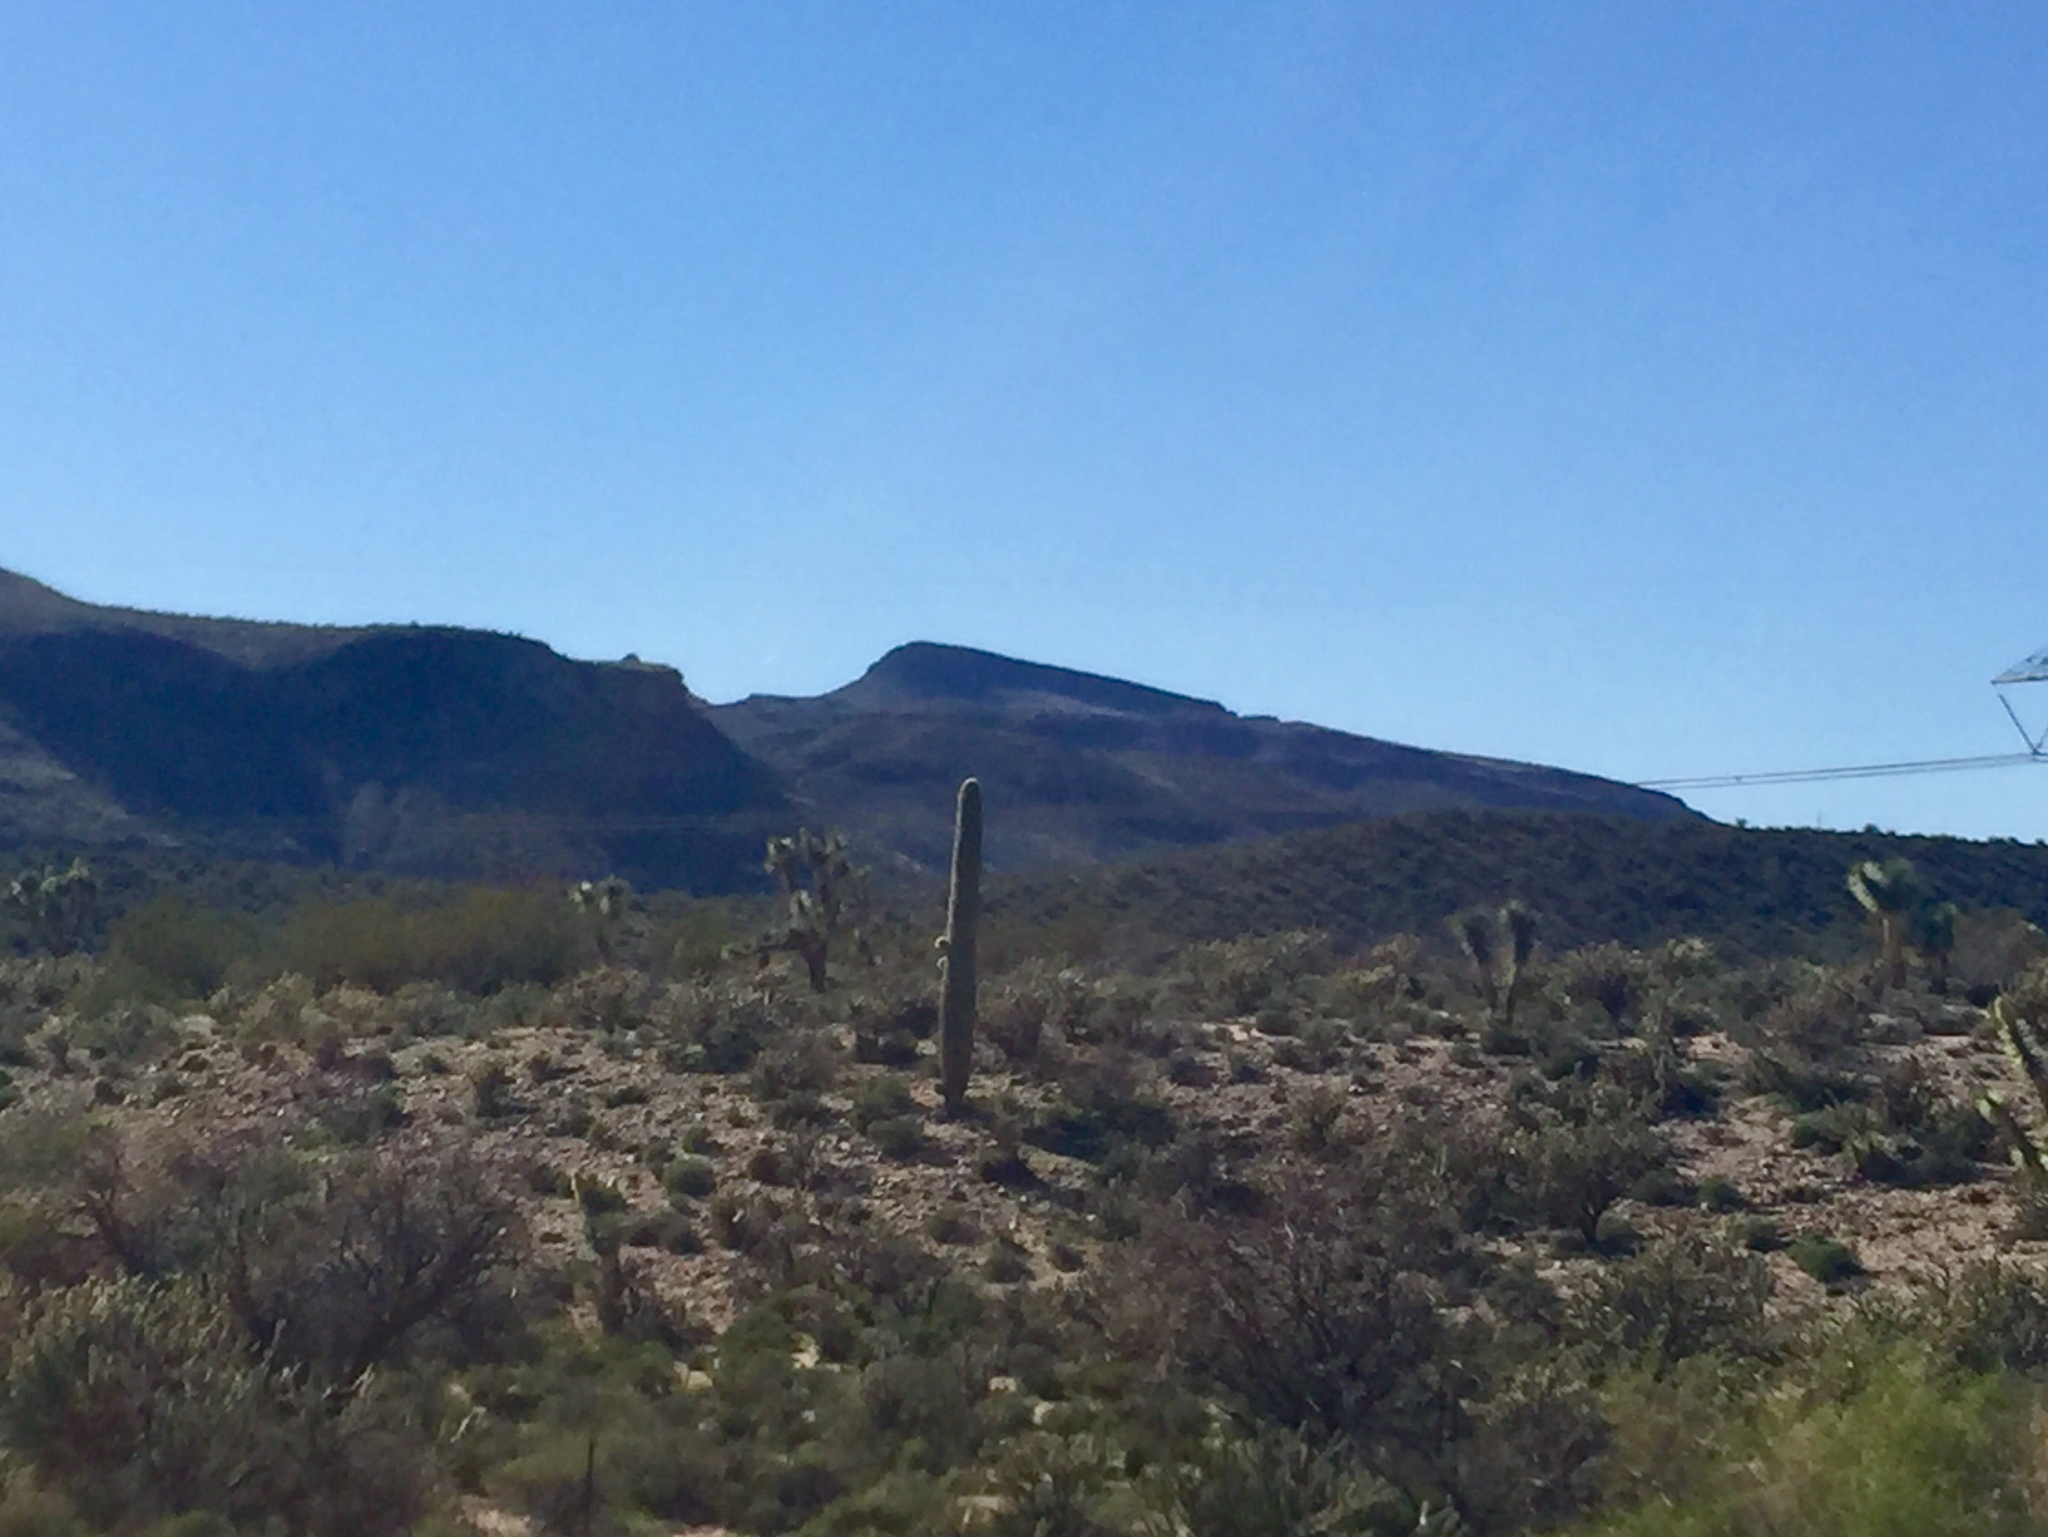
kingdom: Plantae
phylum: Tracheophyta
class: Magnoliopsida
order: Caryophyllales
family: Cactaceae
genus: Carnegiea
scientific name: Carnegiea gigantea
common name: Saguaro
